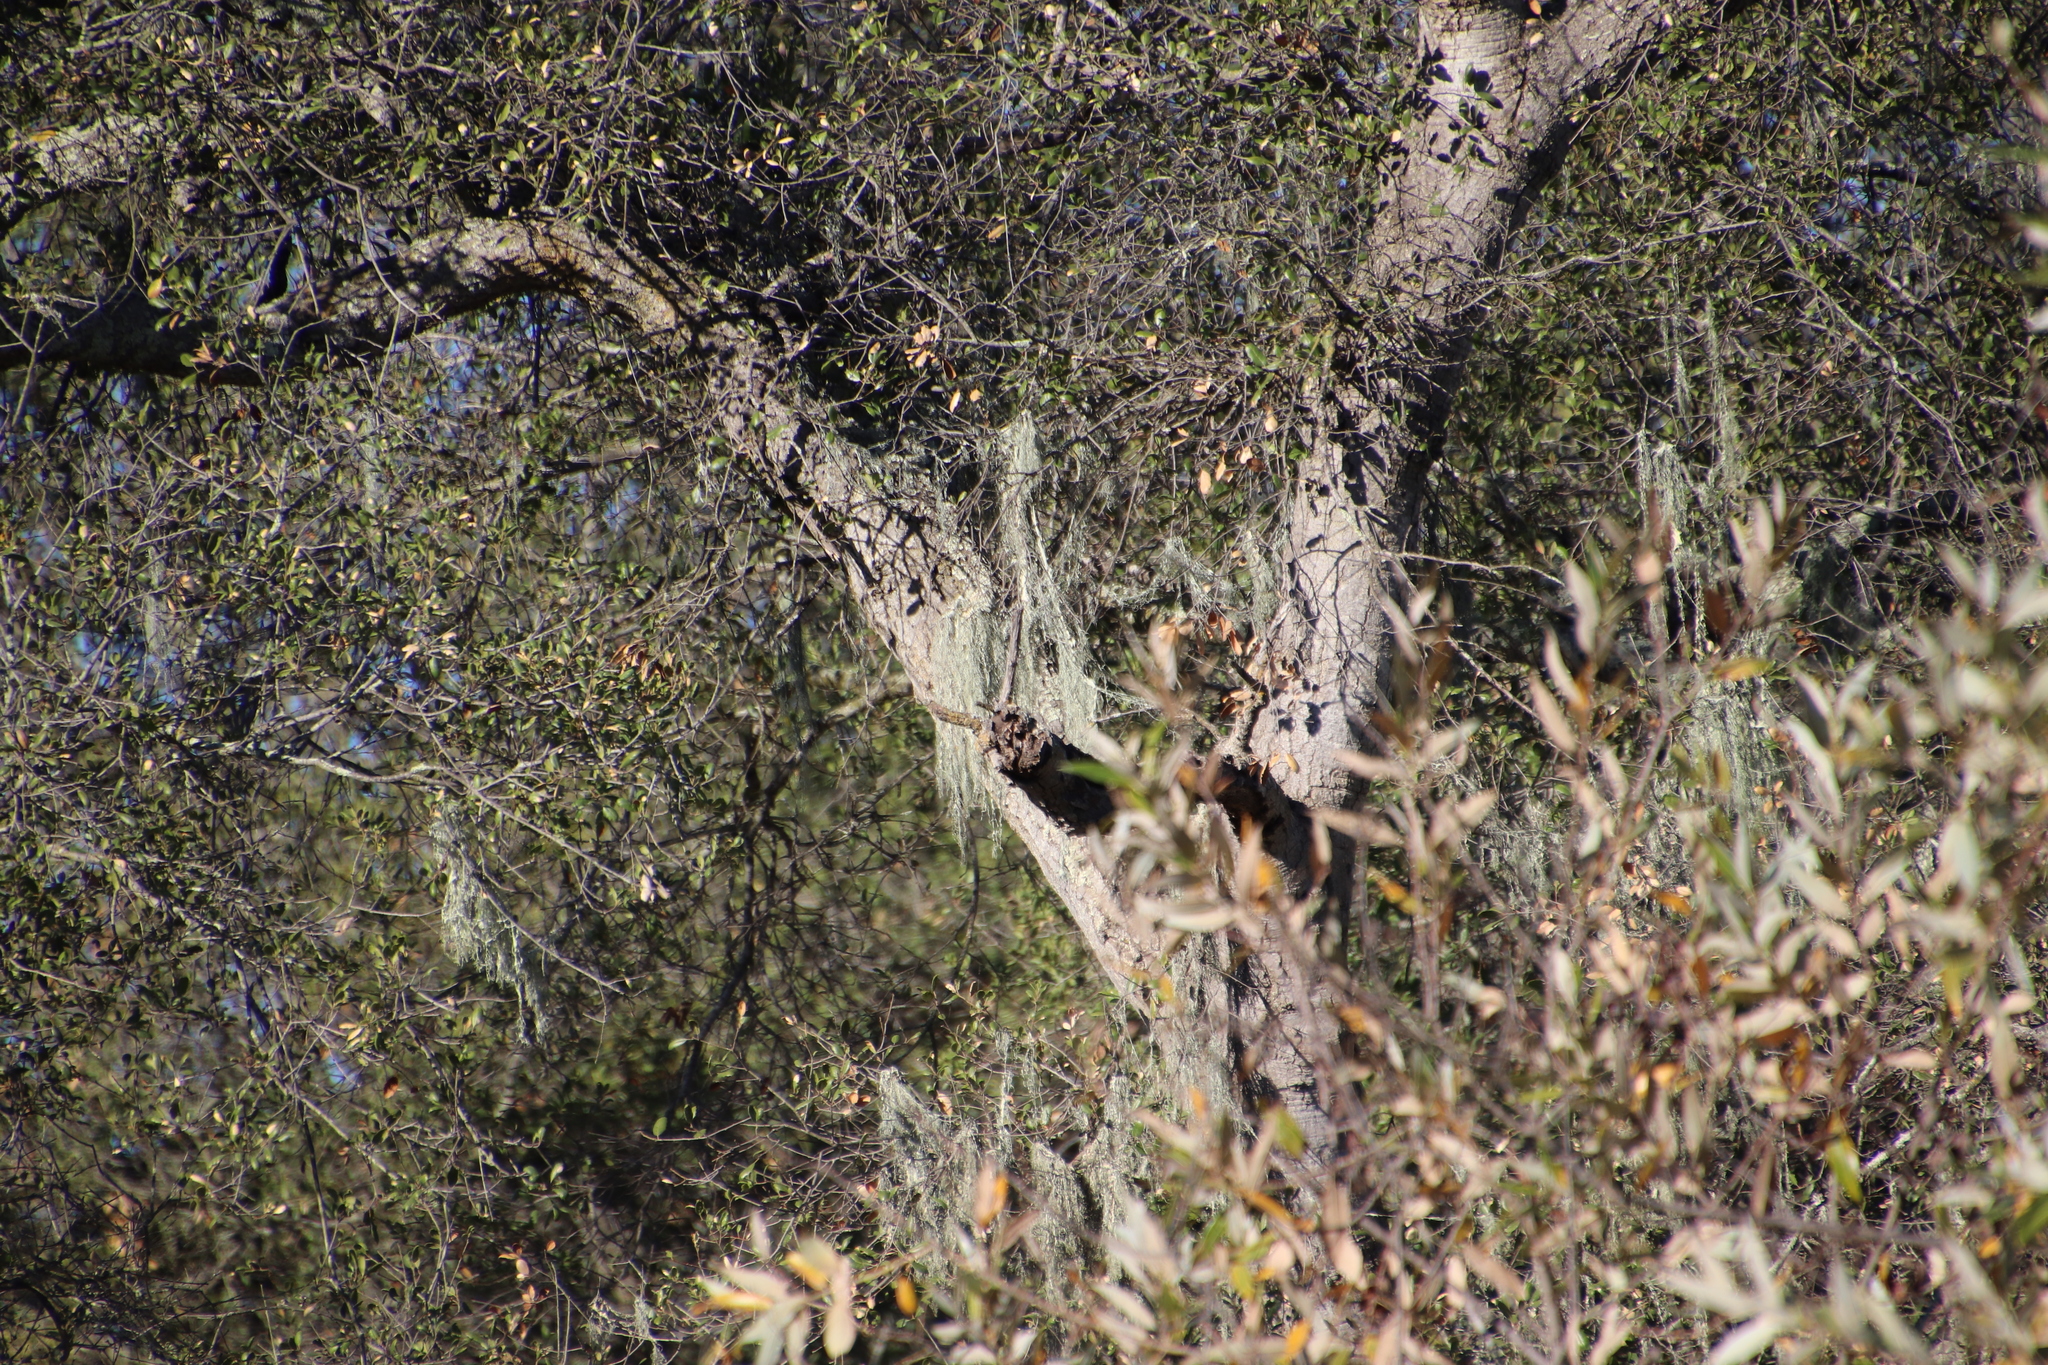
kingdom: Fungi
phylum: Ascomycota
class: Lecanoromycetes
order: Lecanorales
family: Ramalinaceae
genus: Ramalina
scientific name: Ramalina menziesii
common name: Lace lichen
